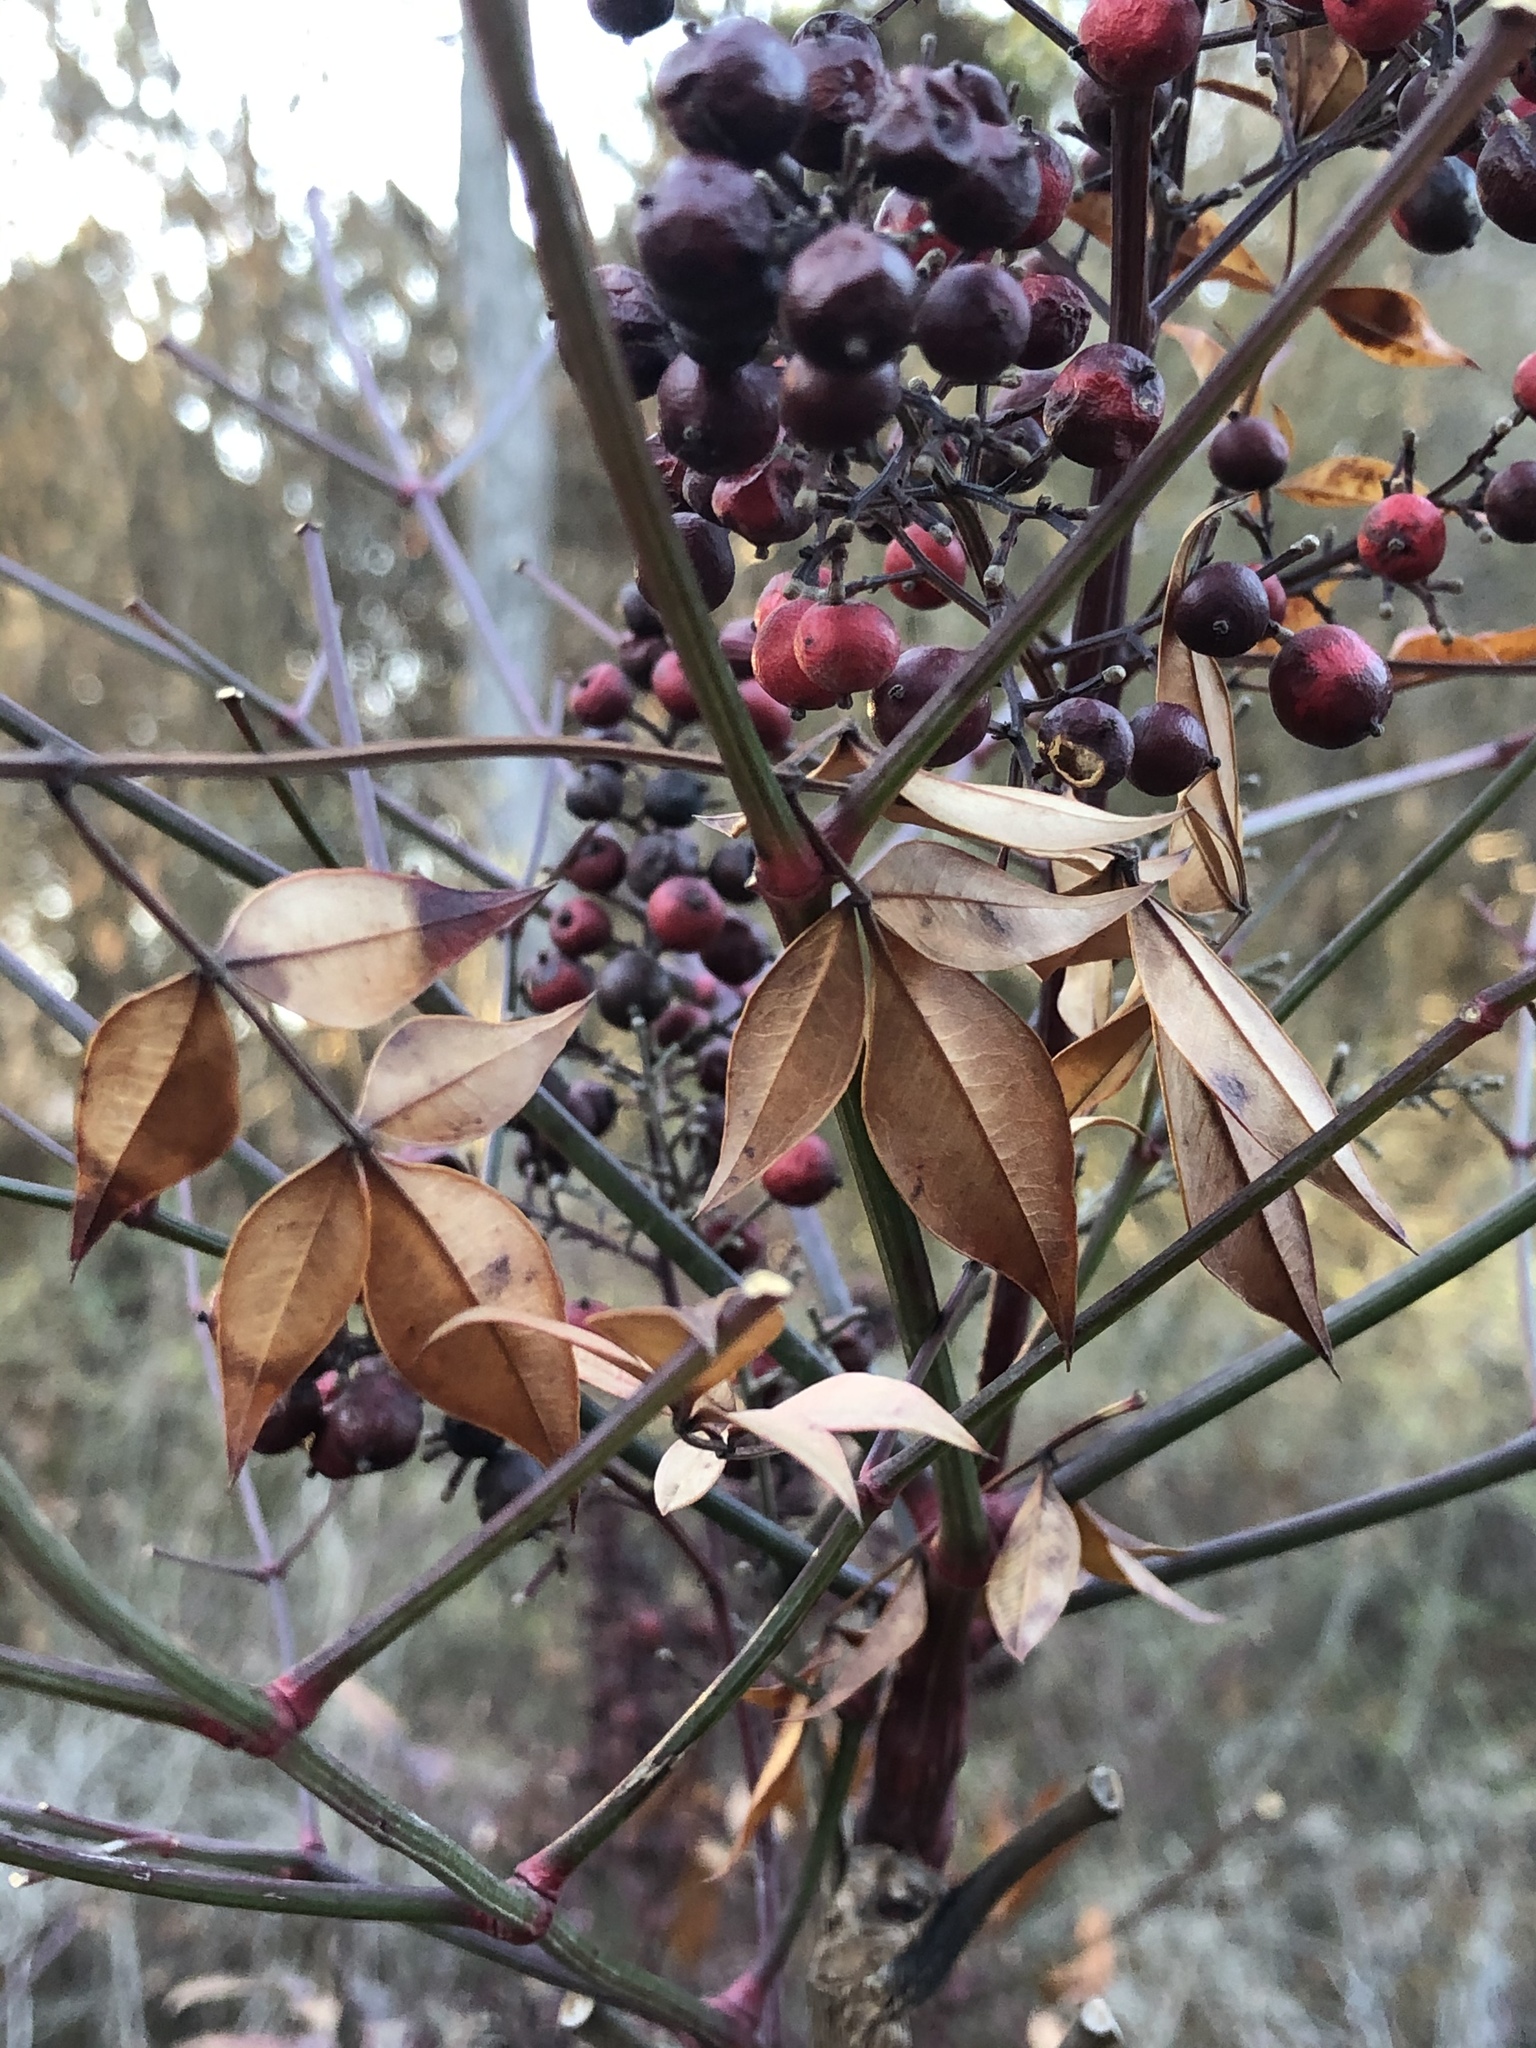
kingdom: Plantae
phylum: Tracheophyta
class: Magnoliopsida
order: Ranunculales
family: Berberidaceae
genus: Nandina
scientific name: Nandina domestica
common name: Sacred bamboo
